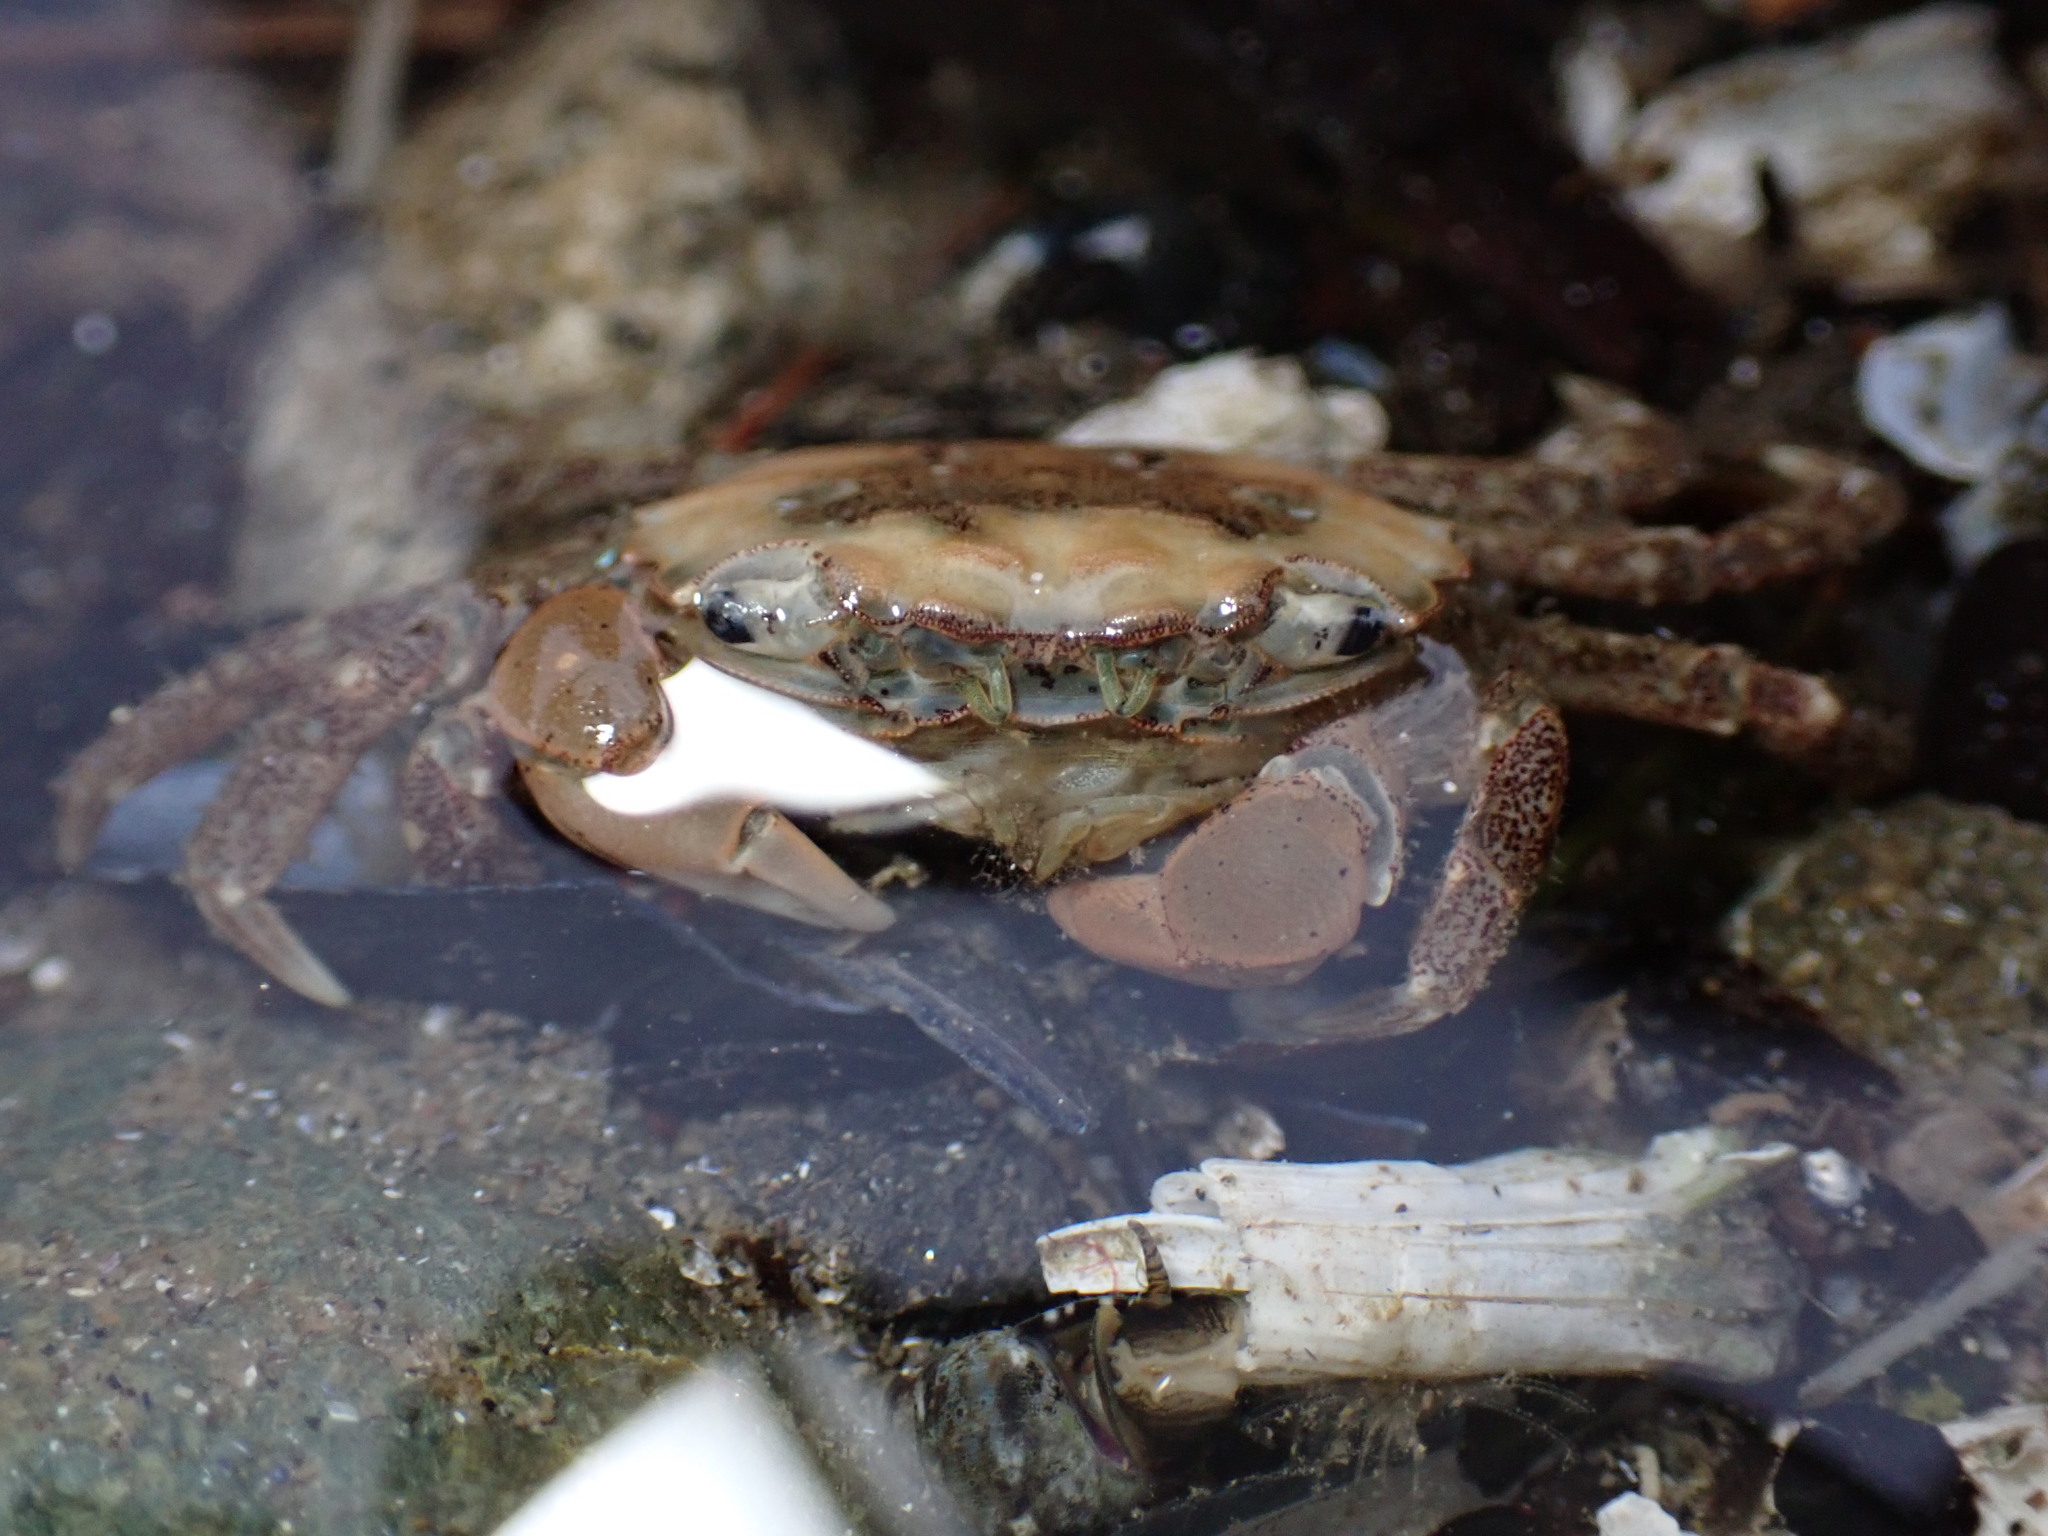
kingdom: Animalia
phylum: Arthropoda
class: Malacostraca
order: Decapoda
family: Varunidae
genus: Hemigrapsus
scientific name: Hemigrapsus oregonensis
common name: Yellow shore crab
